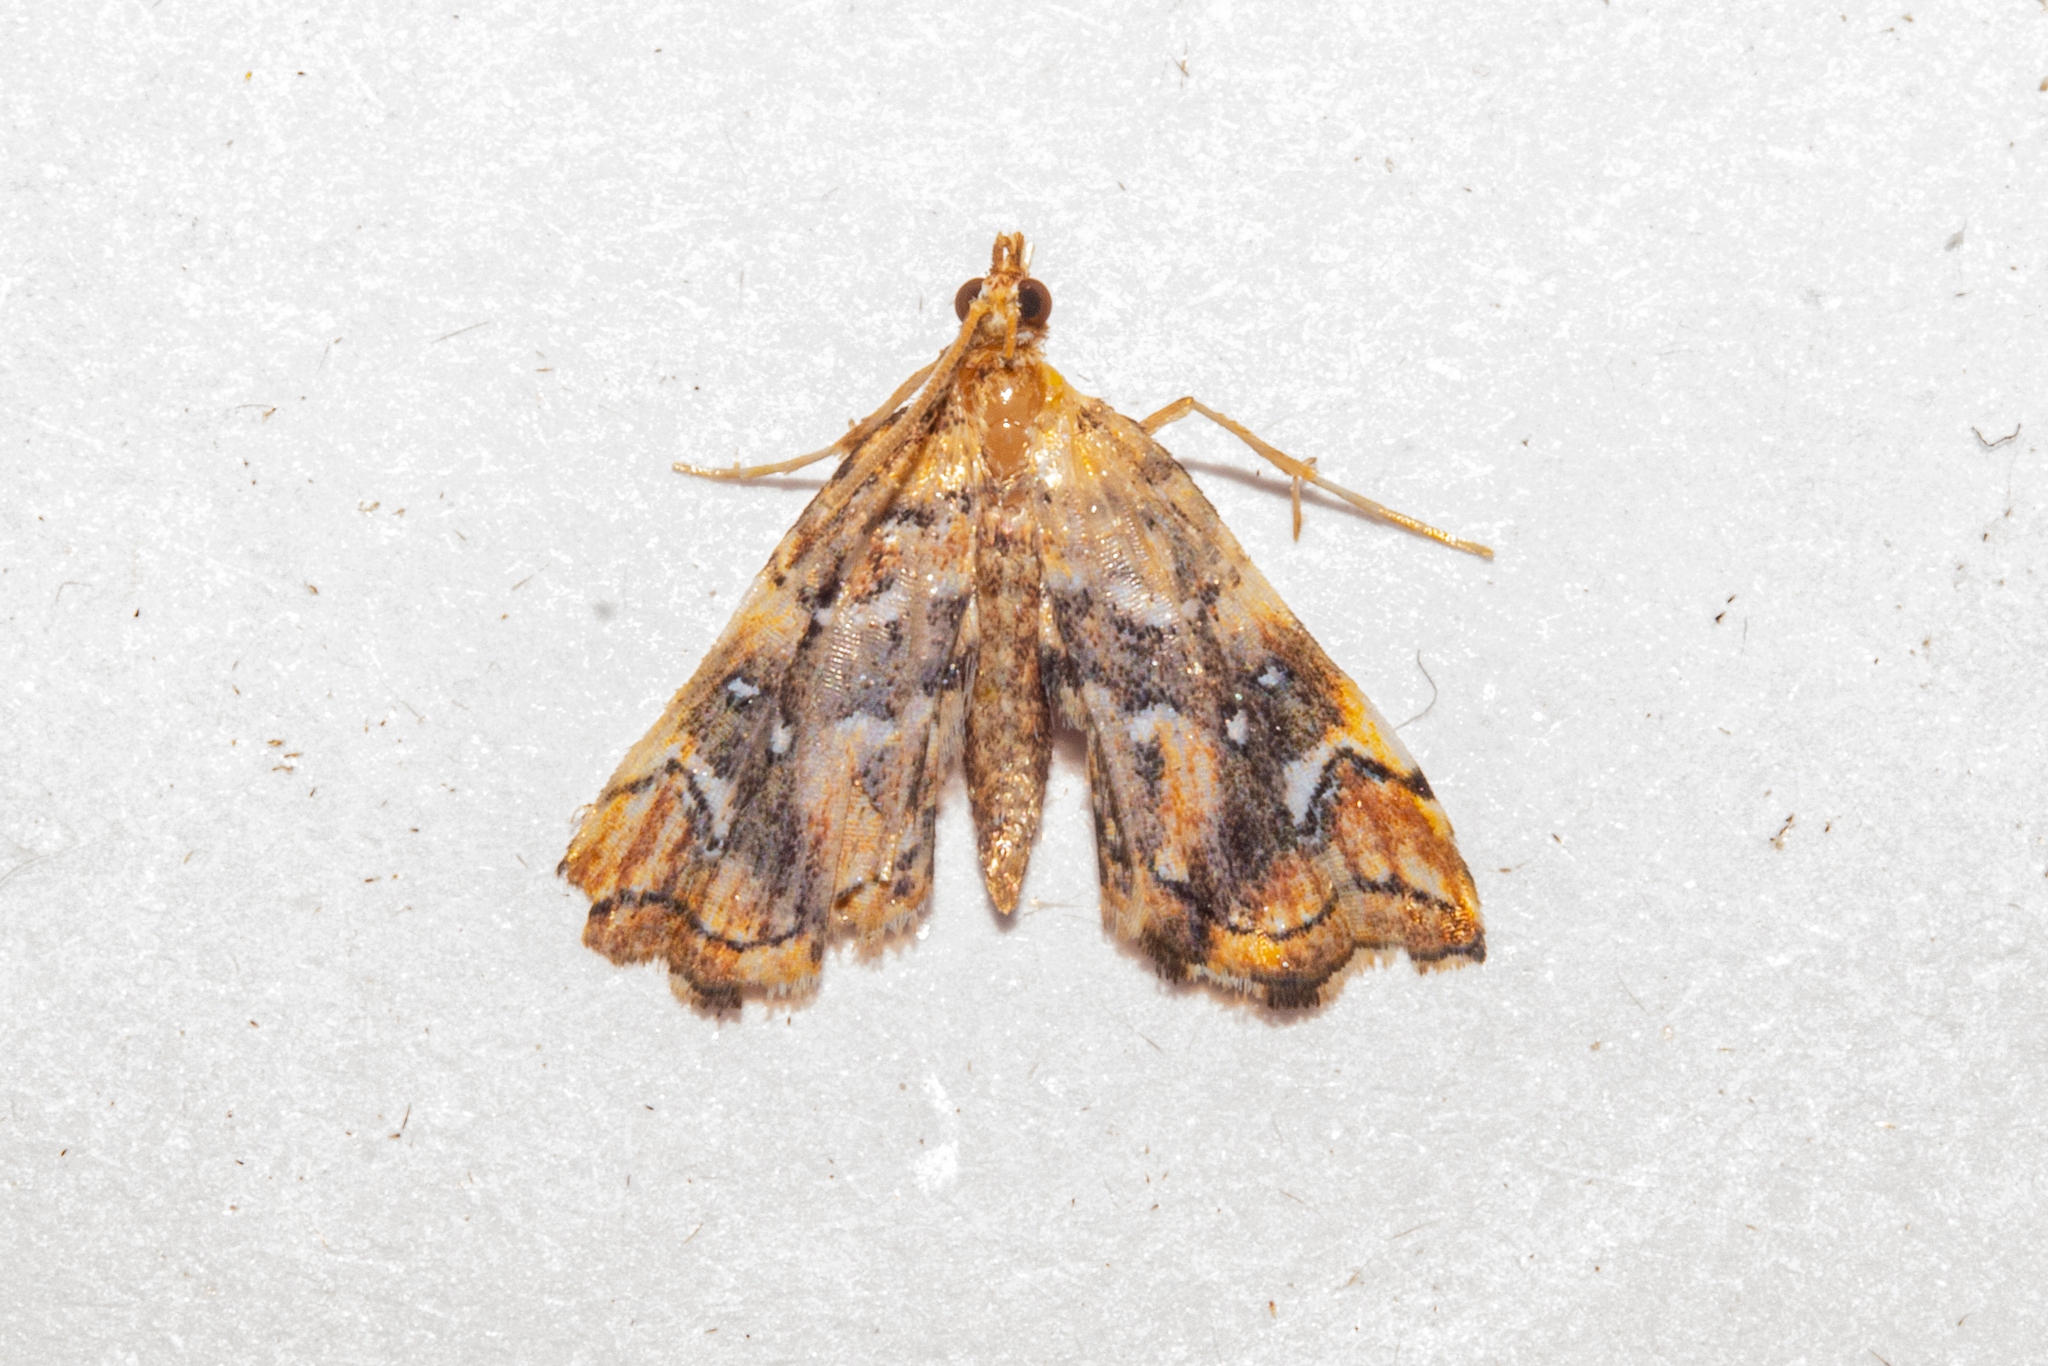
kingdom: Animalia
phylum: Arthropoda
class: Insecta
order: Lepidoptera
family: Pyralidae
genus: Musotima
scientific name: Musotima nitidalis
